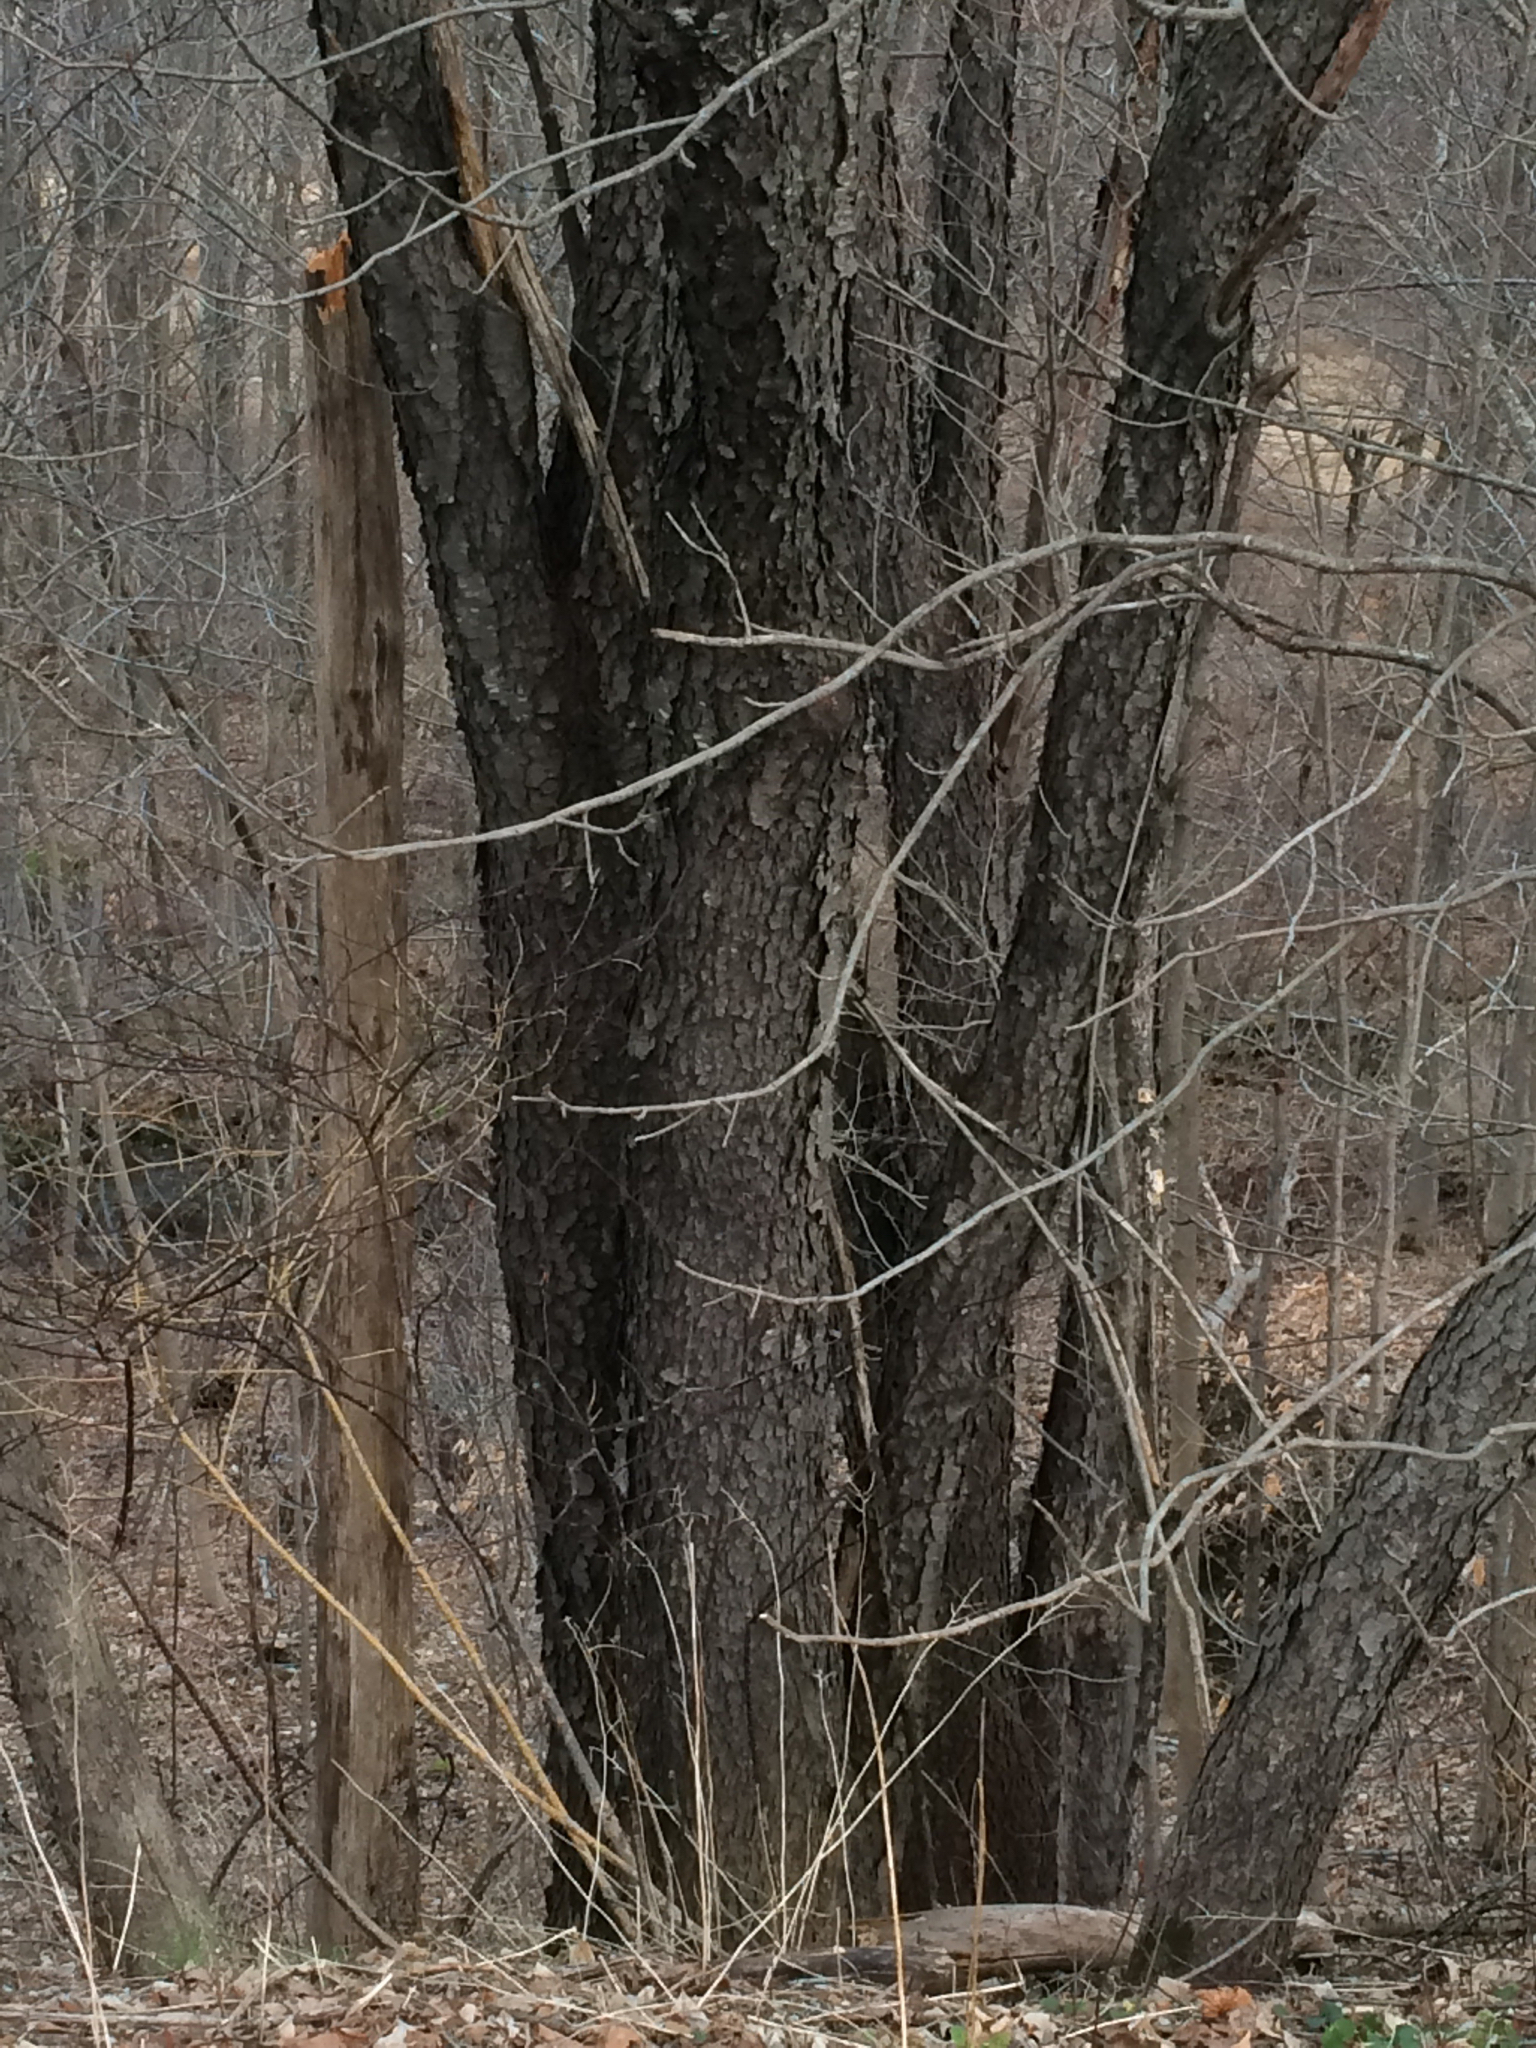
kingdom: Plantae
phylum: Tracheophyta
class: Magnoliopsida
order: Rosales
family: Rosaceae
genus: Prunus
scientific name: Prunus serotina
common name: Black cherry
